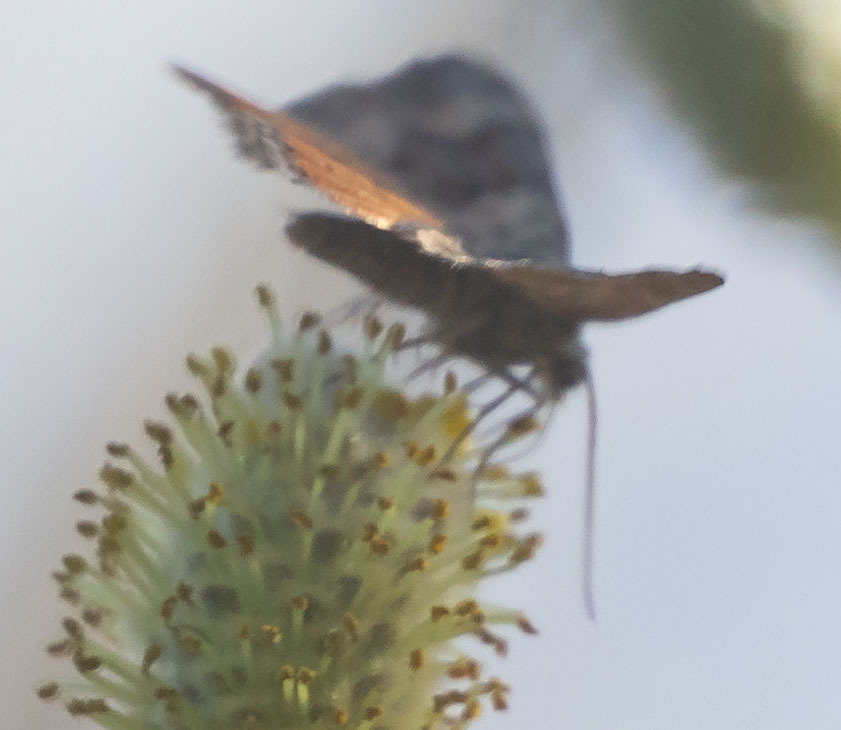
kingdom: Animalia
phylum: Arthropoda
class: Insecta
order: Lepidoptera
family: Geometridae
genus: Epirrhoe
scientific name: Epirrhoe plebeculata
